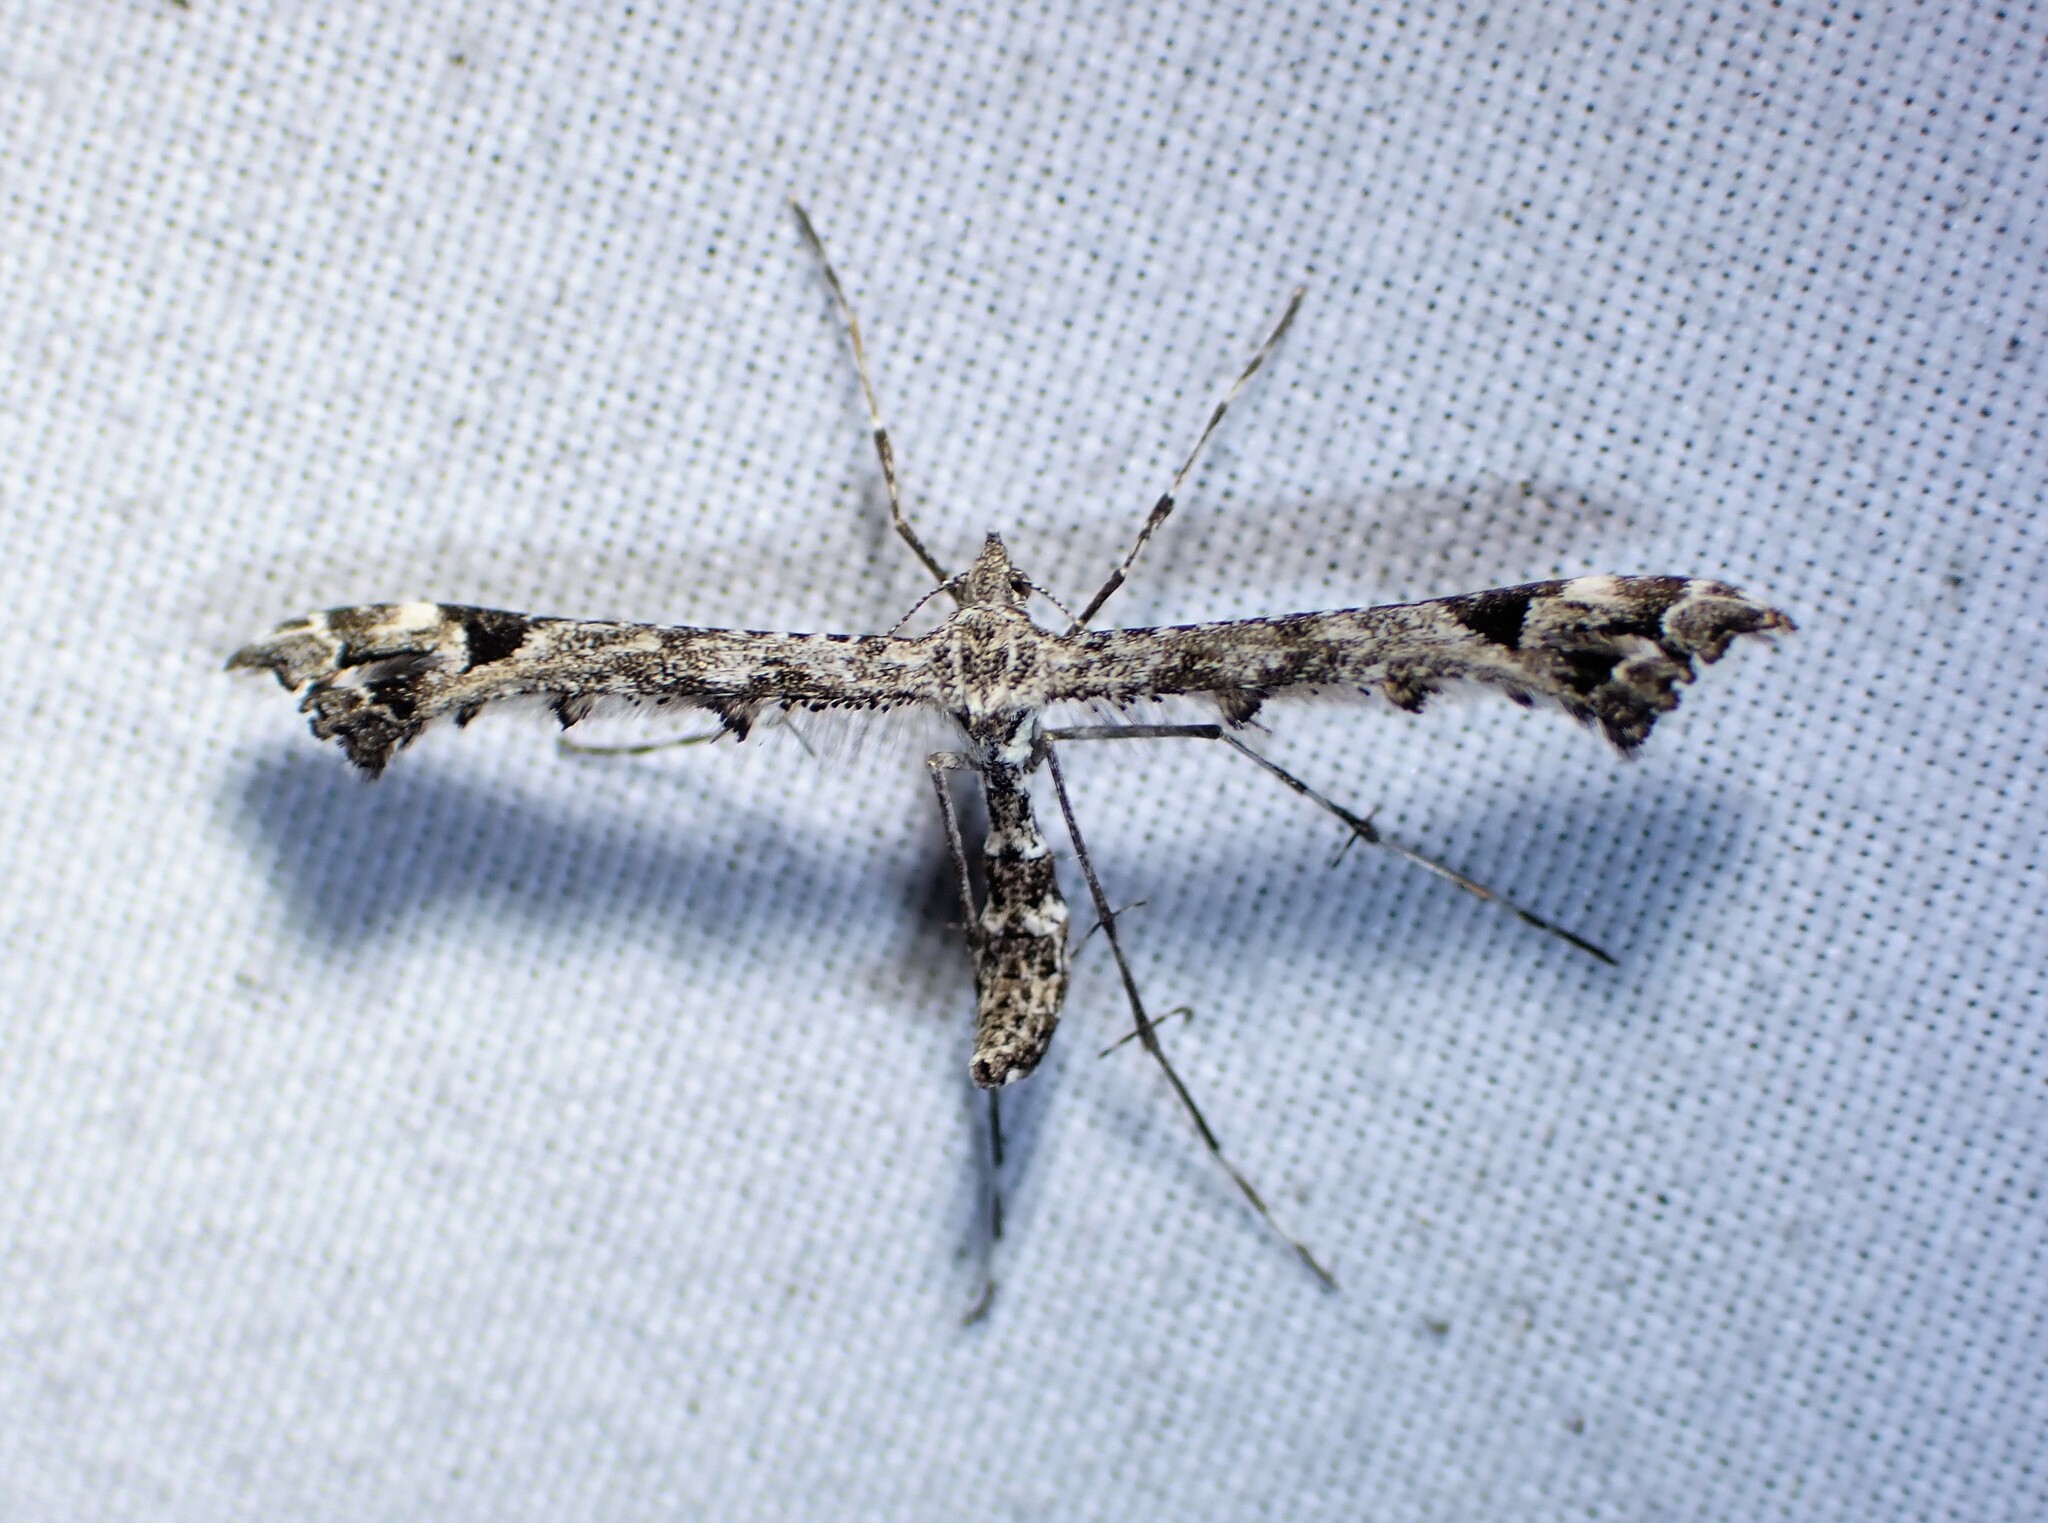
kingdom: Animalia
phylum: Arthropoda
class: Insecta
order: Lepidoptera
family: Pterophoridae
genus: Amblyptilia
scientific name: Amblyptilia pica
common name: Geranium plume moth
